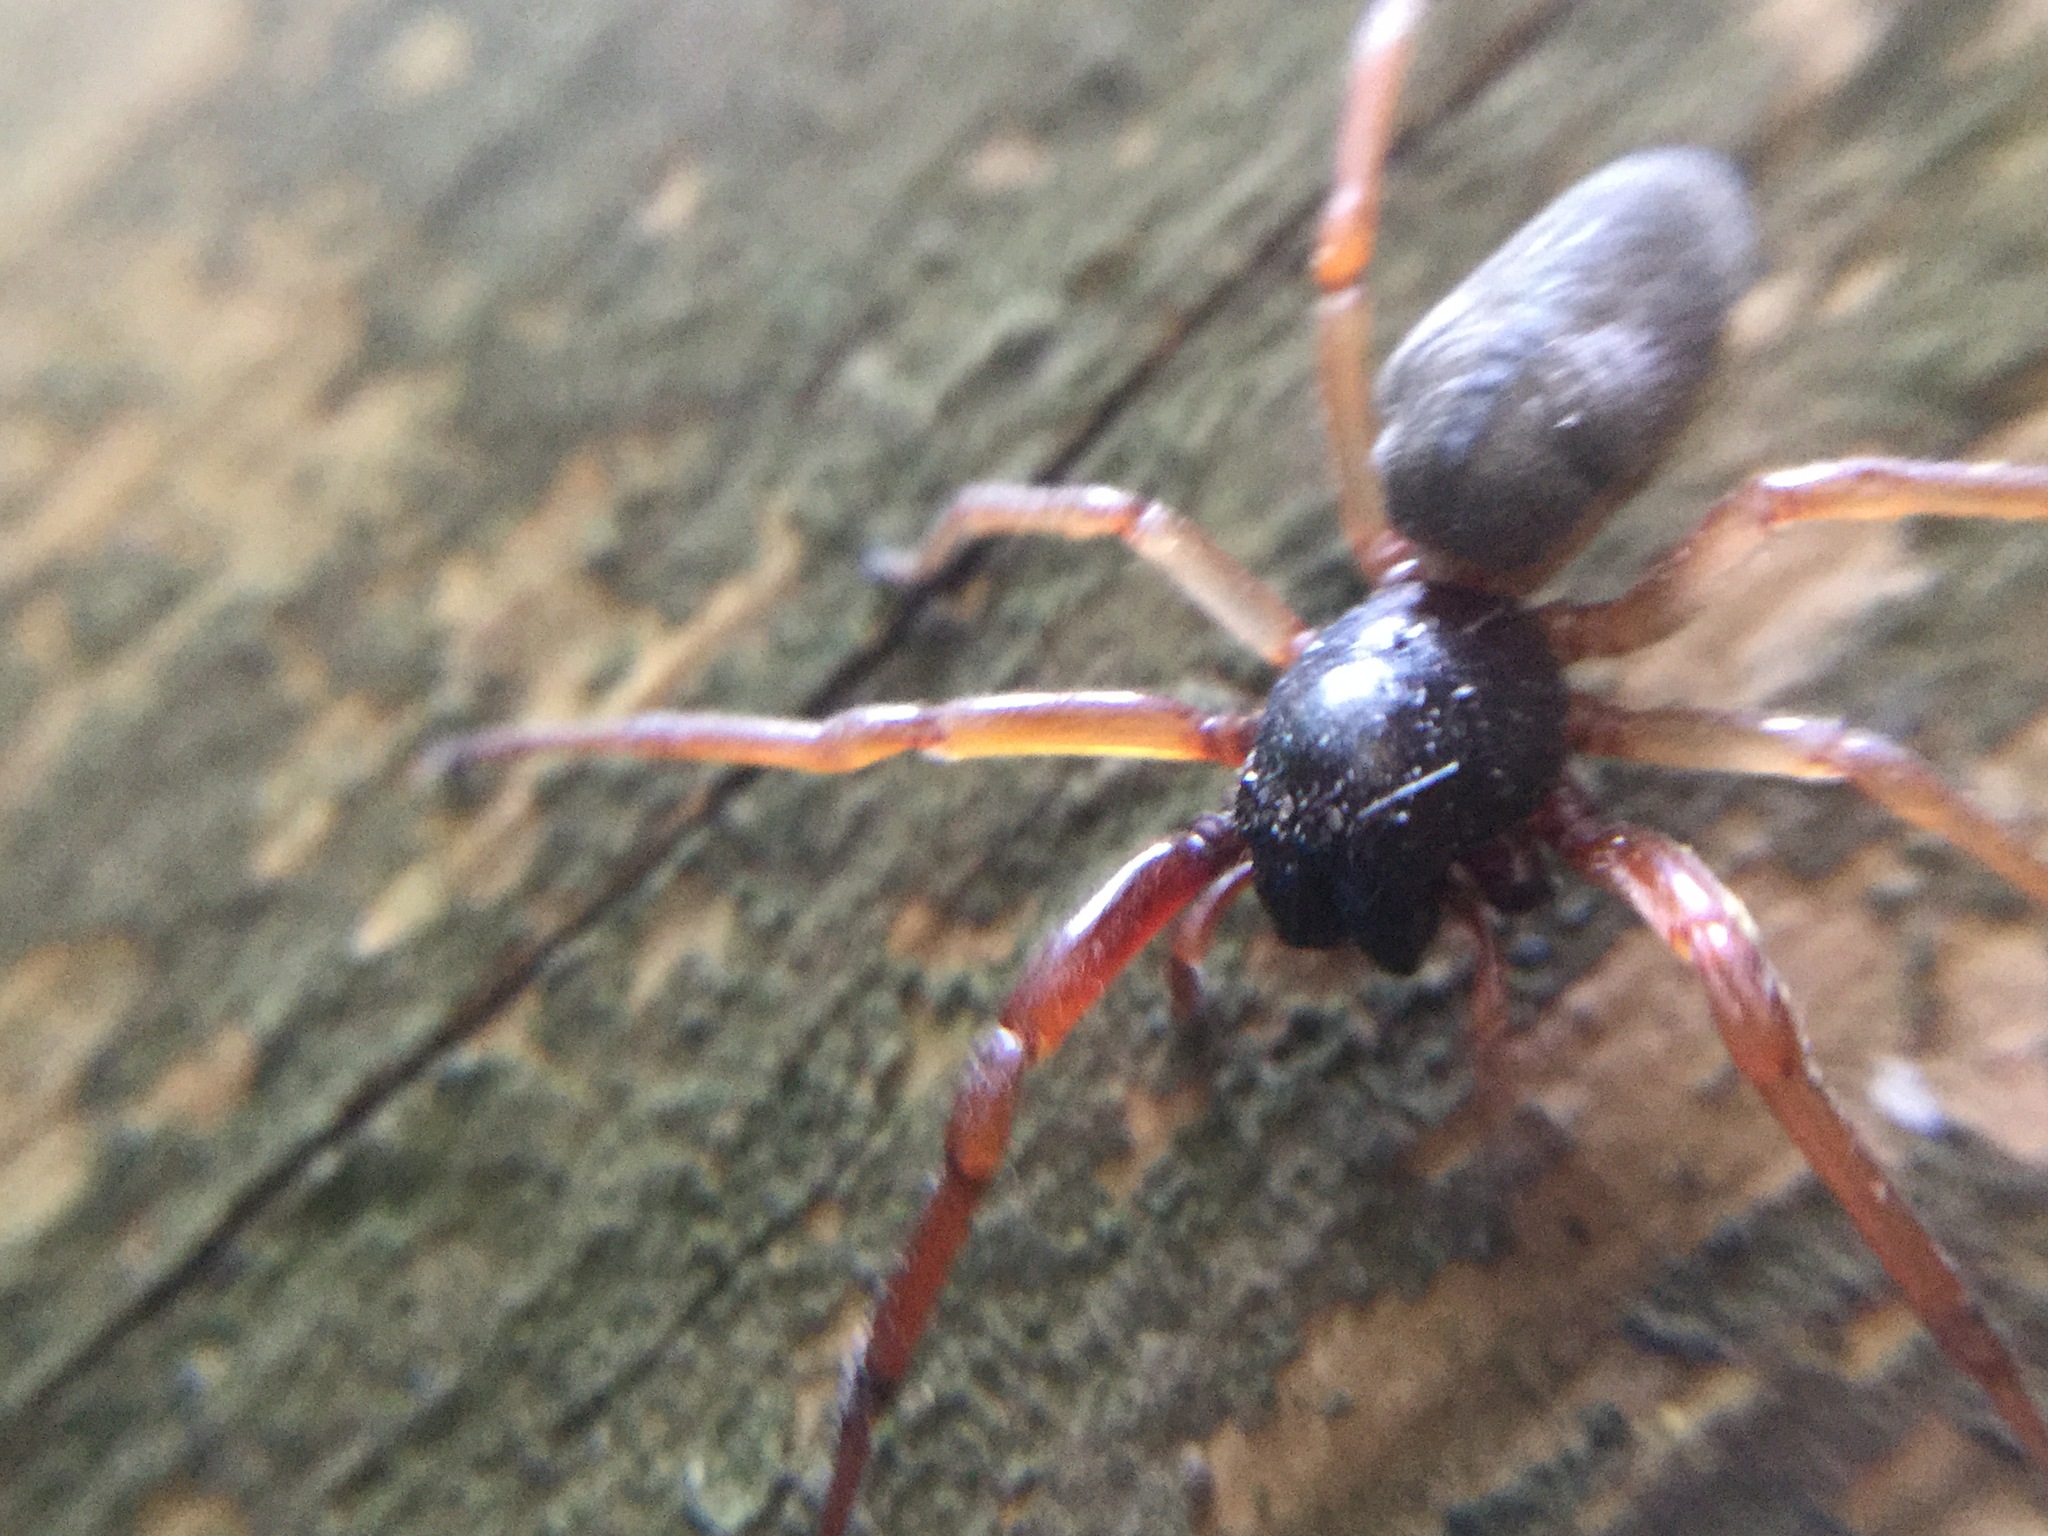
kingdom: Animalia
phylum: Arthropoda
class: Arachnida
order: Araneae
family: Trachelidae
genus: Trachelas
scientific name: Trachelas tranquillus
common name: Broad-faced sac spider
